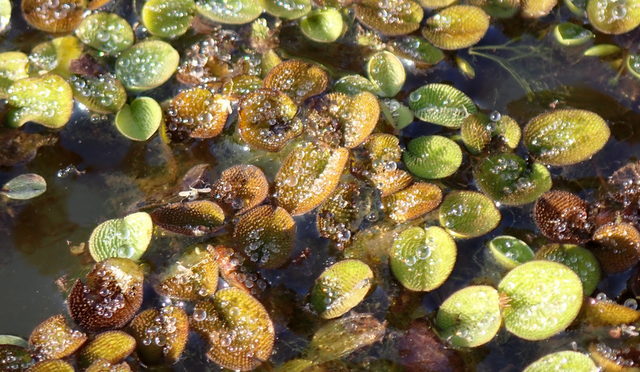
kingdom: Plantae
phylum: Tracheophyta
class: Polypodiopsida
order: Salviniales
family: Salviniaceae
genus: Salvinia
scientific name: Salvinia minima
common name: Water spangles
